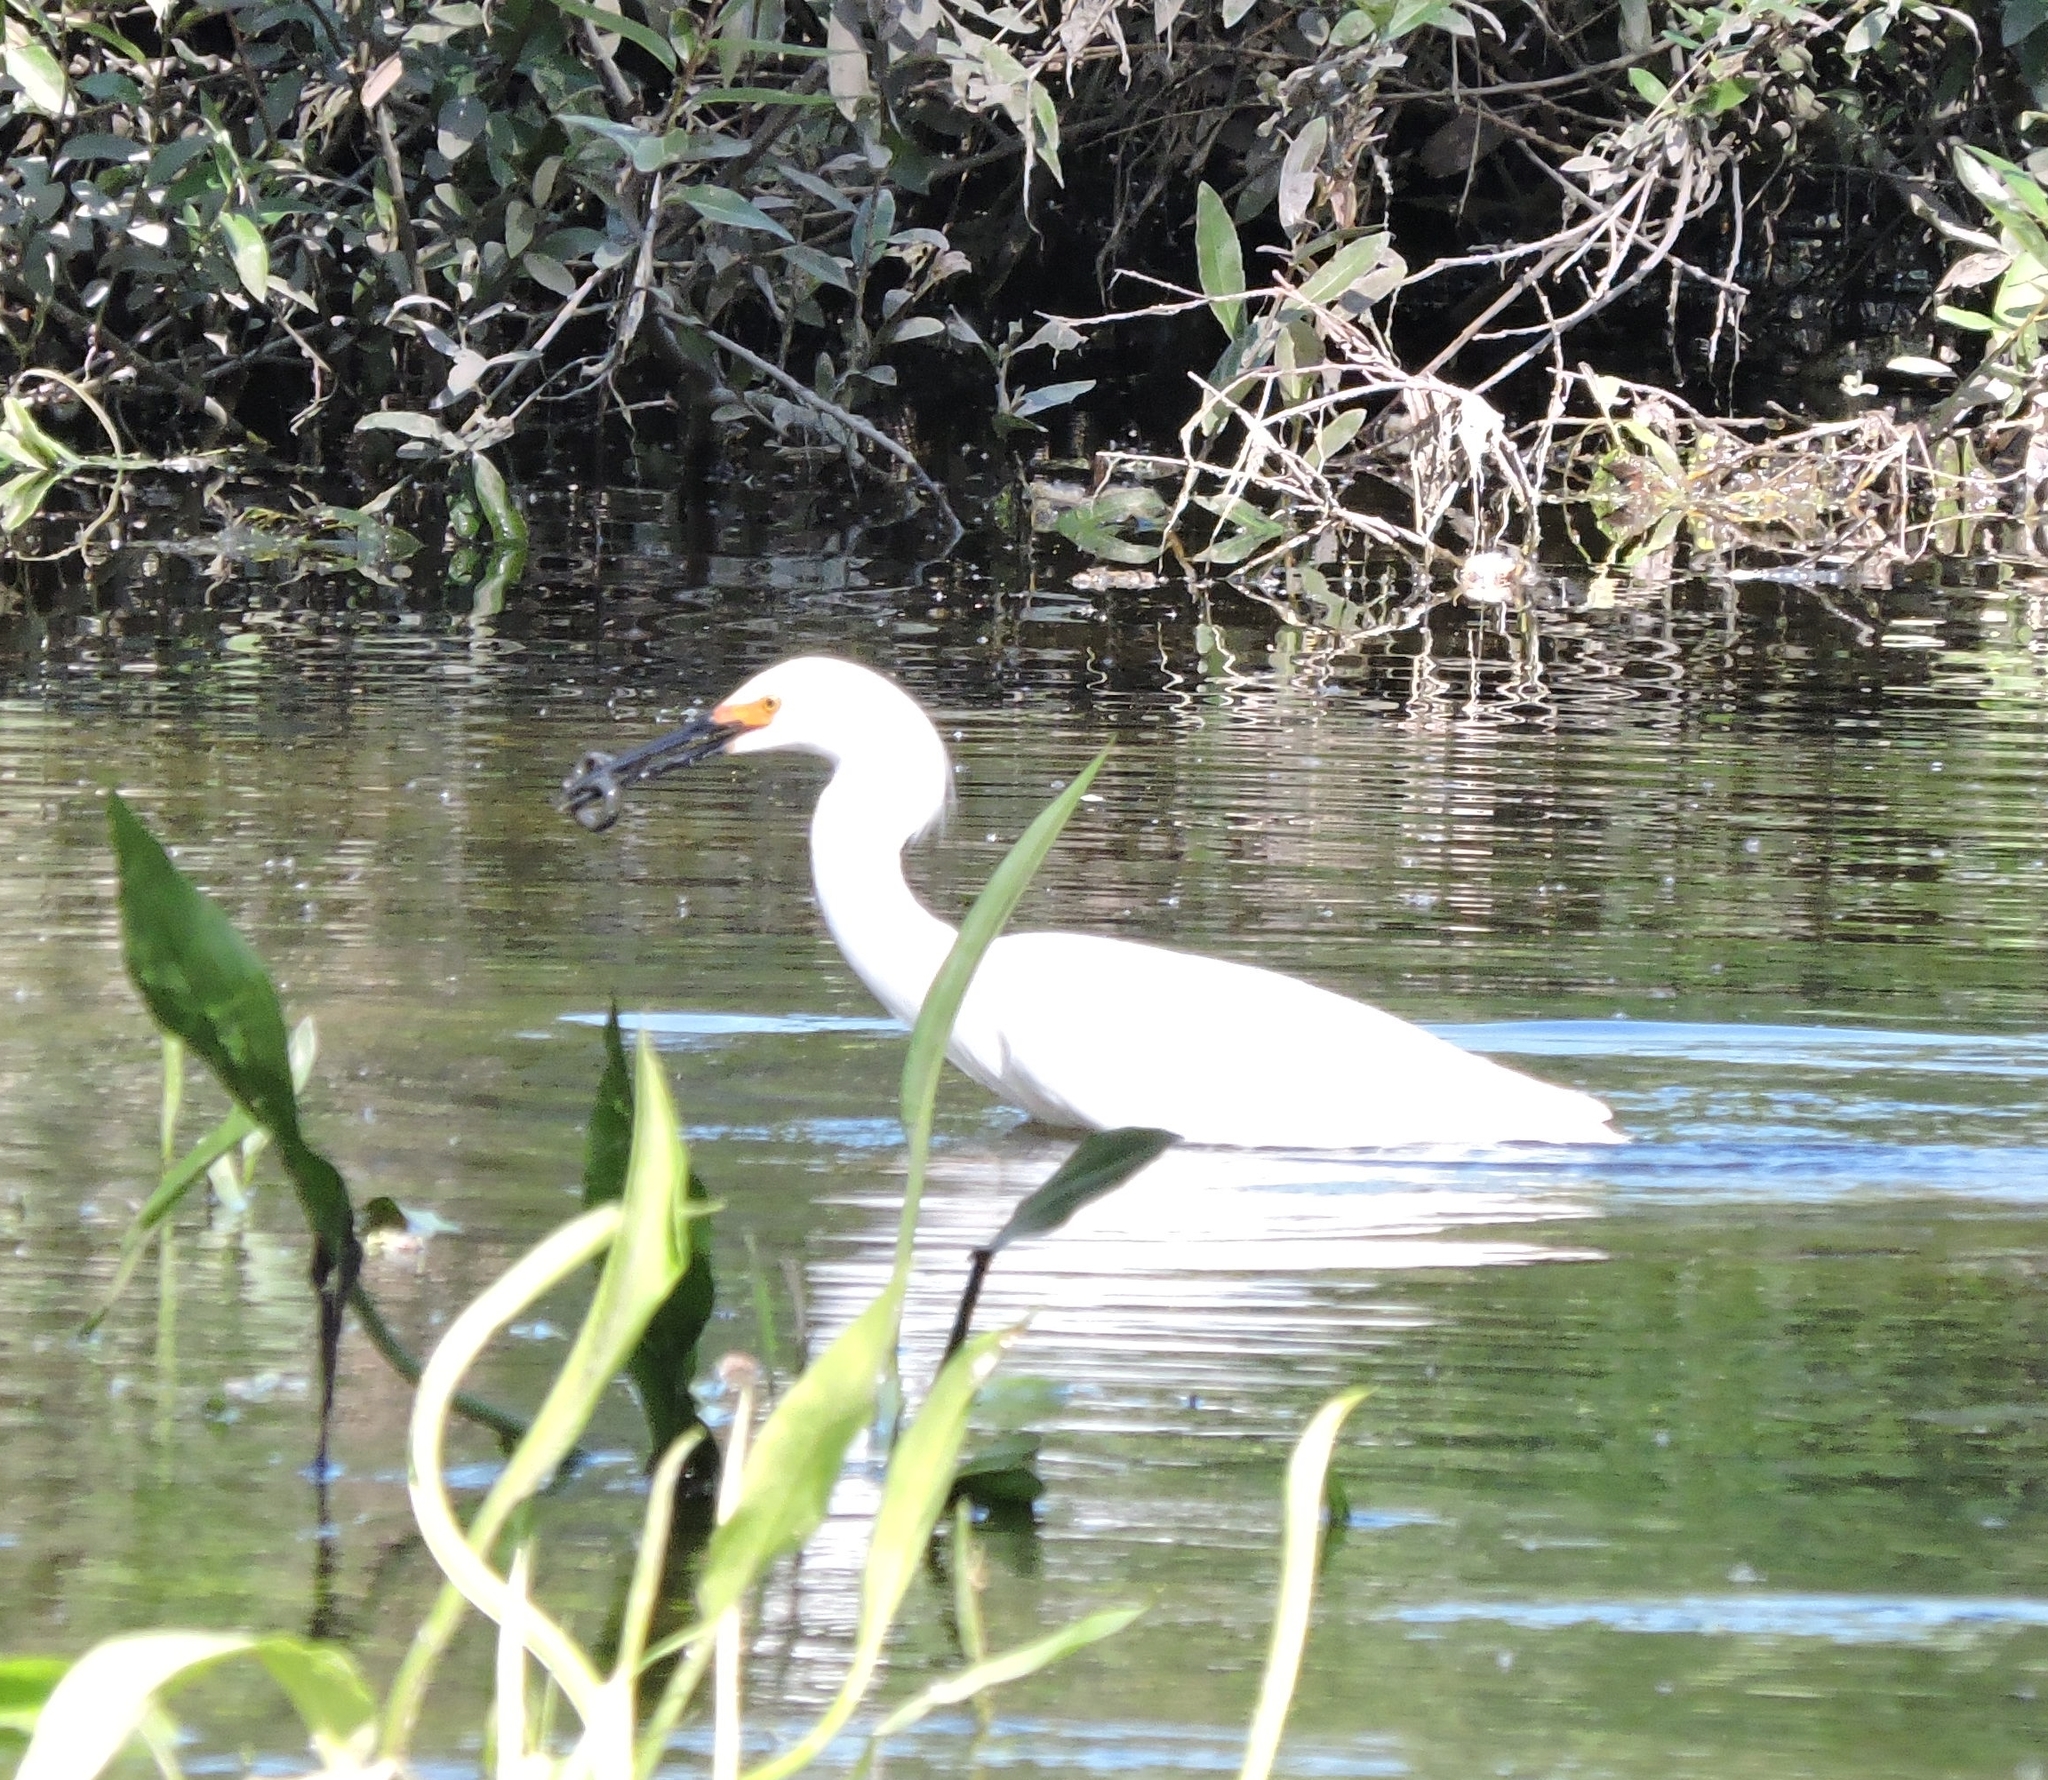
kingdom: Animalia
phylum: Chordata
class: Aves
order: Pelecaniformes
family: Ardeidae
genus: Egretta
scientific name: Egretta thula
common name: Snowy egret
